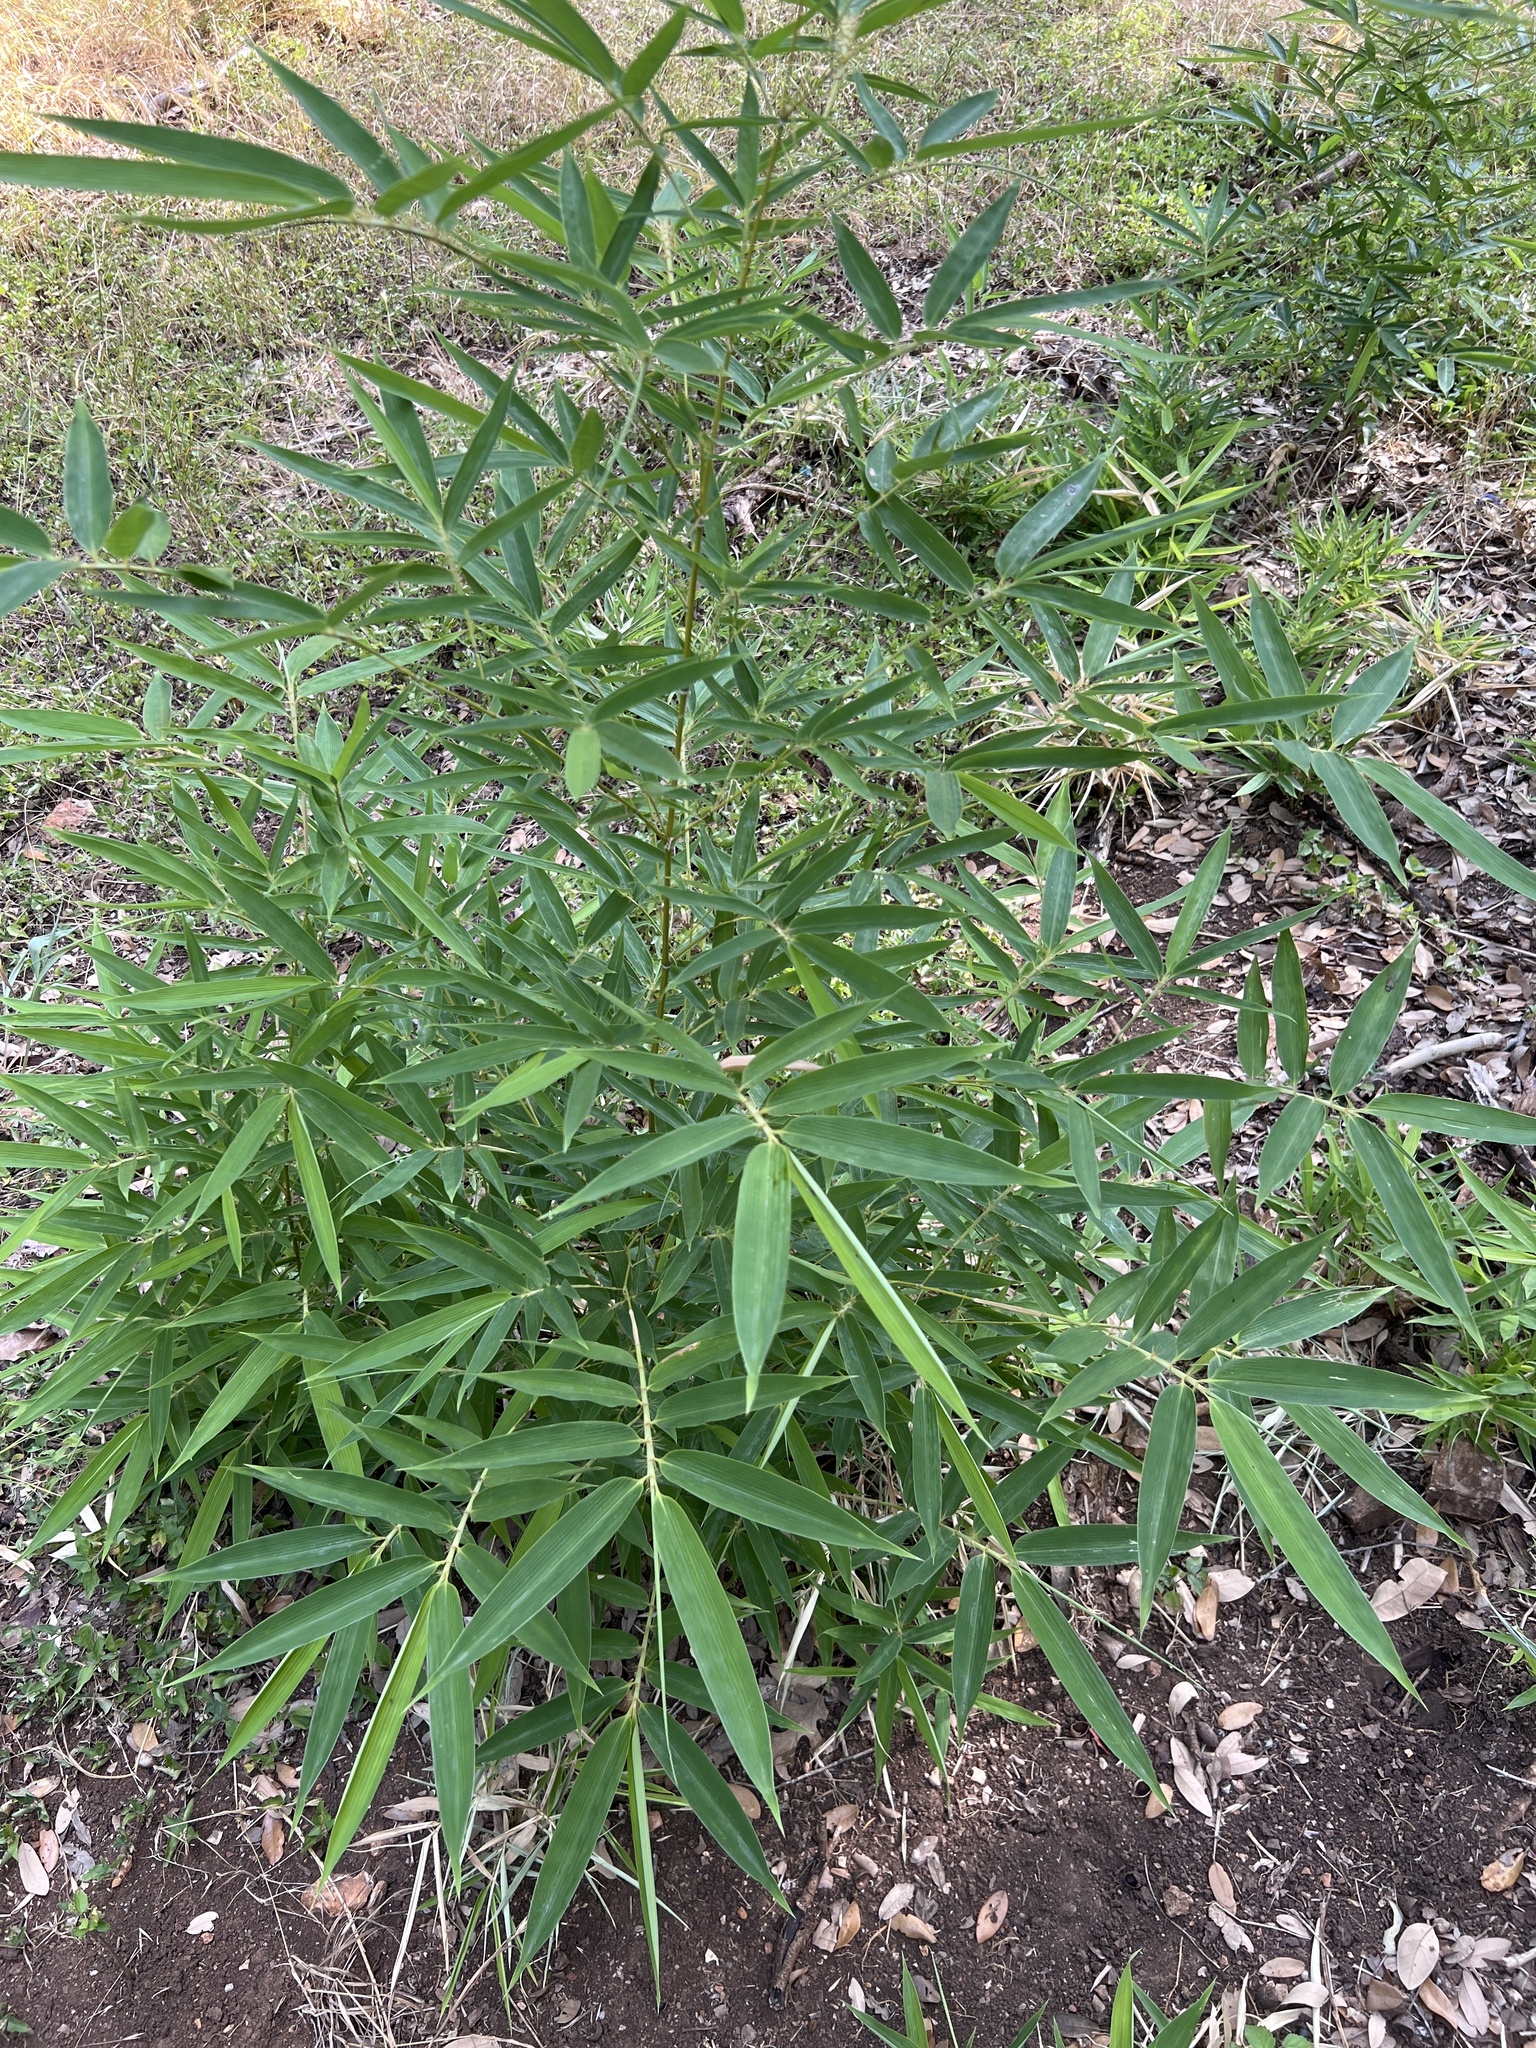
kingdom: Plantae
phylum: Tracheophyta
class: Liliopsida
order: Poales
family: Poaceae
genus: Phyllostachys
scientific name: Phyllostachys aurea
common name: Golden bamboo
